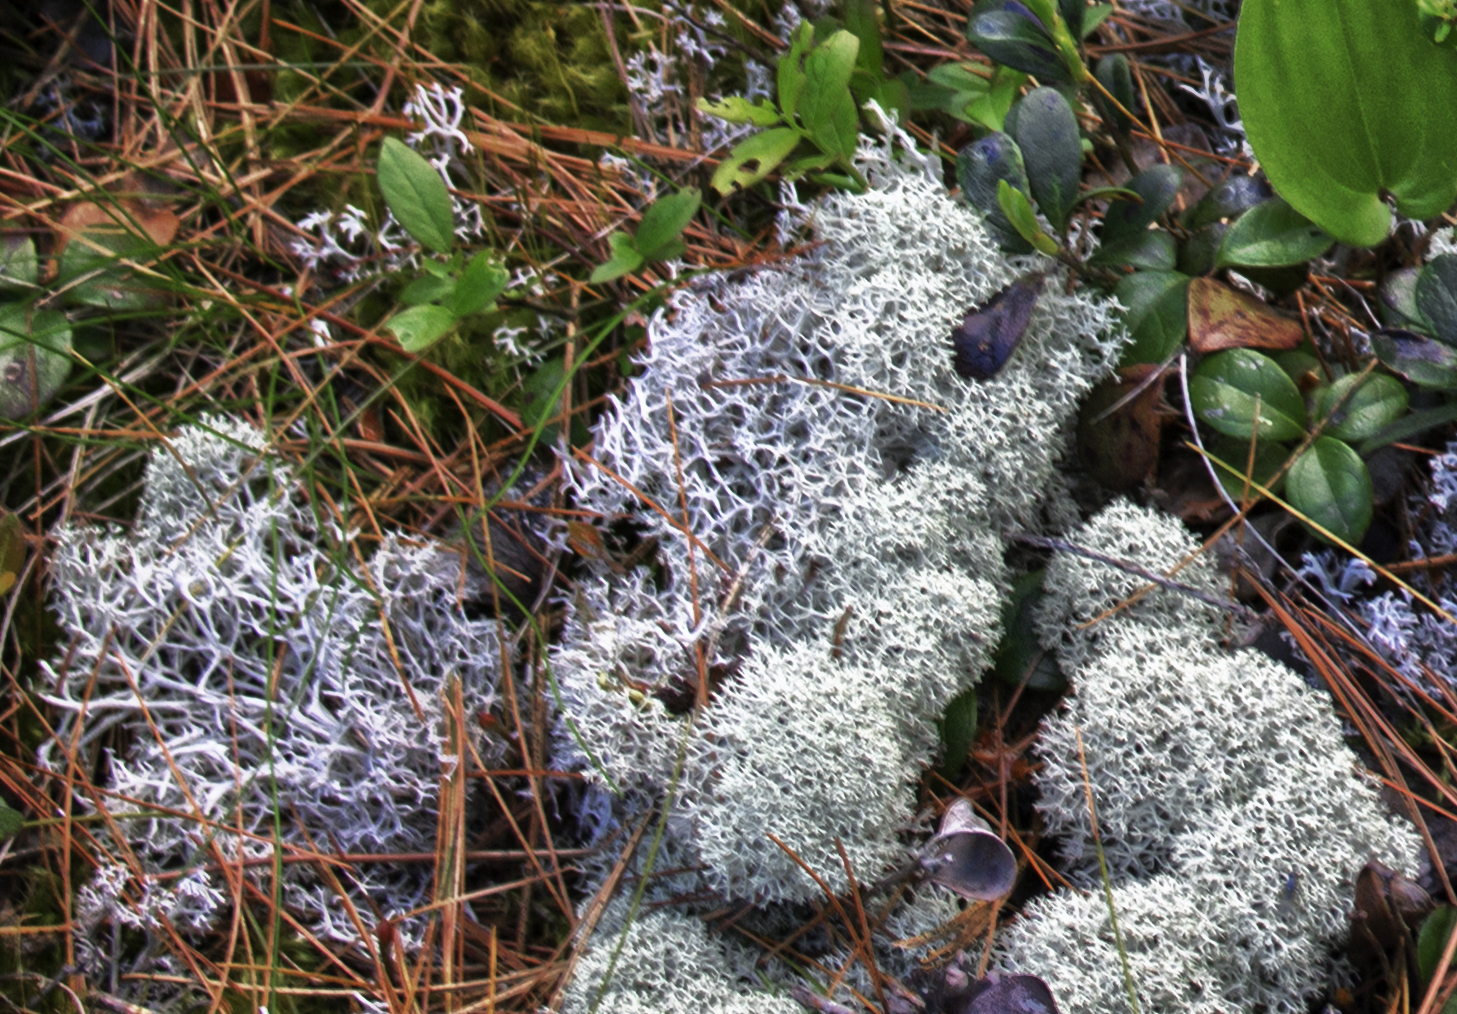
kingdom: Fungi
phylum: Ascomycota
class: Lecanoromycetes
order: Lecanorales
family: Cladoniaceae
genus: Cladonia
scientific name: Cladonia rangiferina
